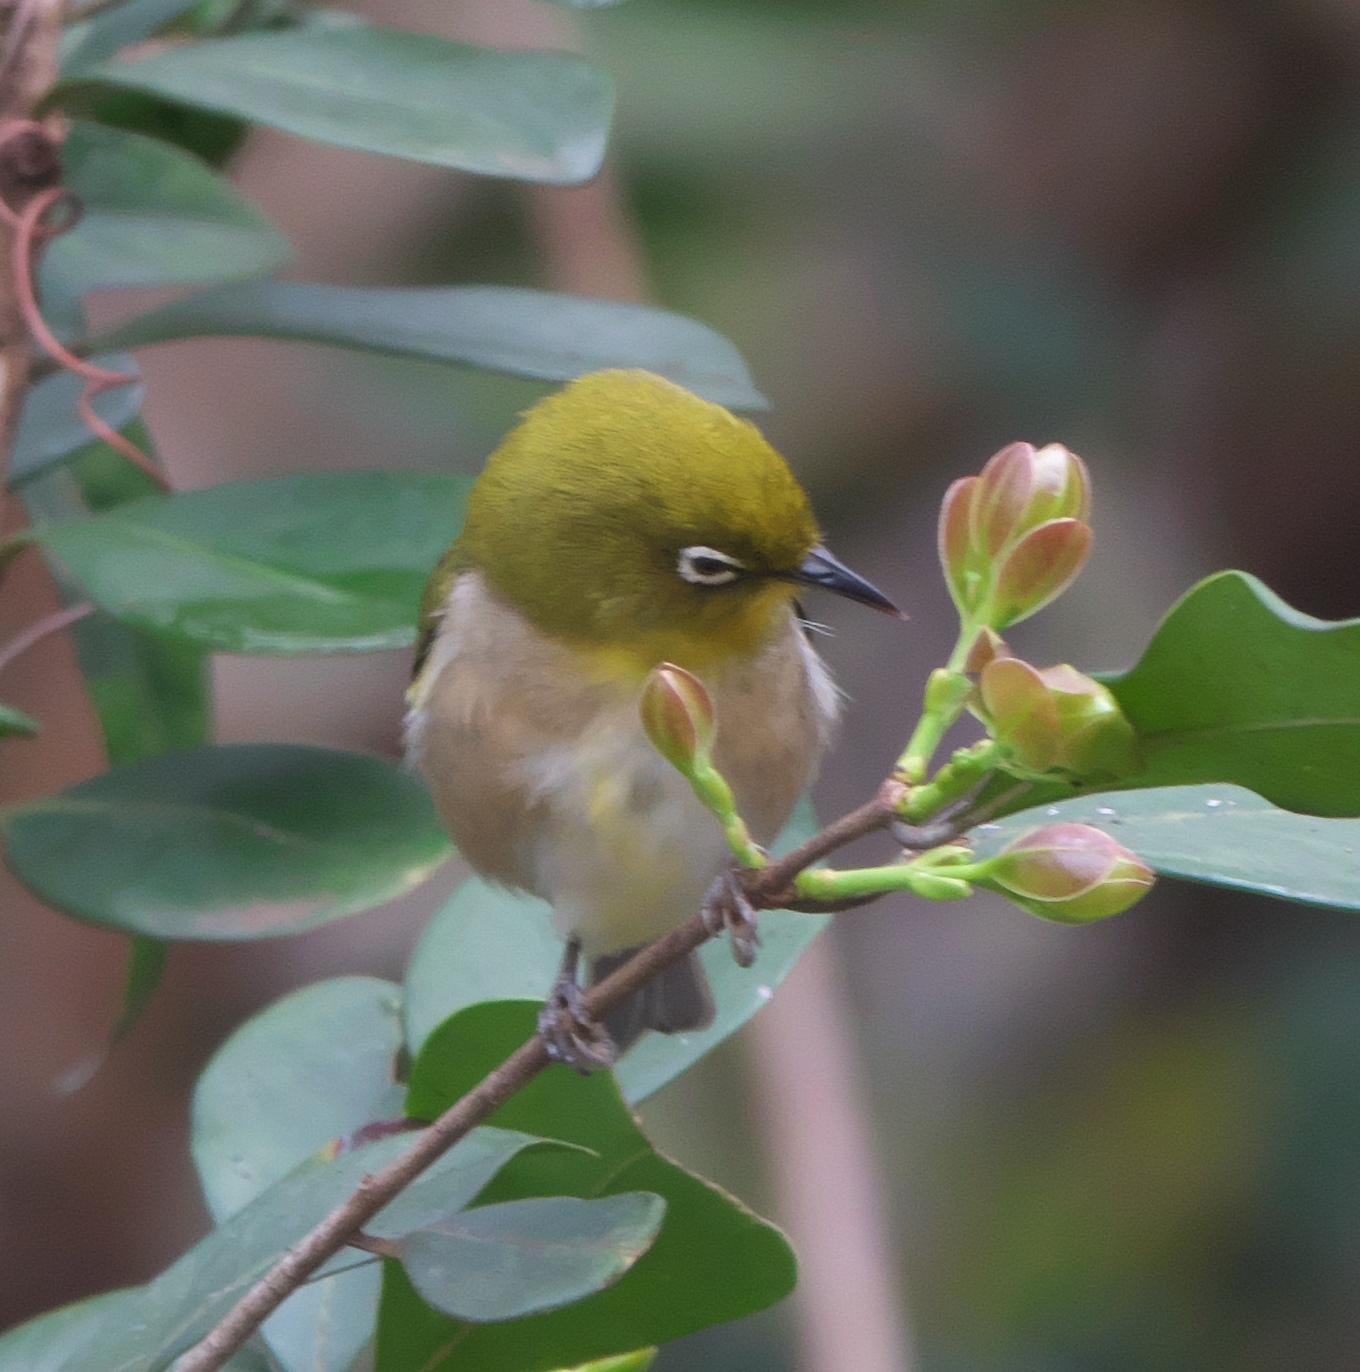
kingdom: Animalia
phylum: Chordata
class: Aves
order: Passeriformes
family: Zosteropidae
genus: Zosterops
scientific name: Zosterops japonicus
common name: Japanese white-eye
